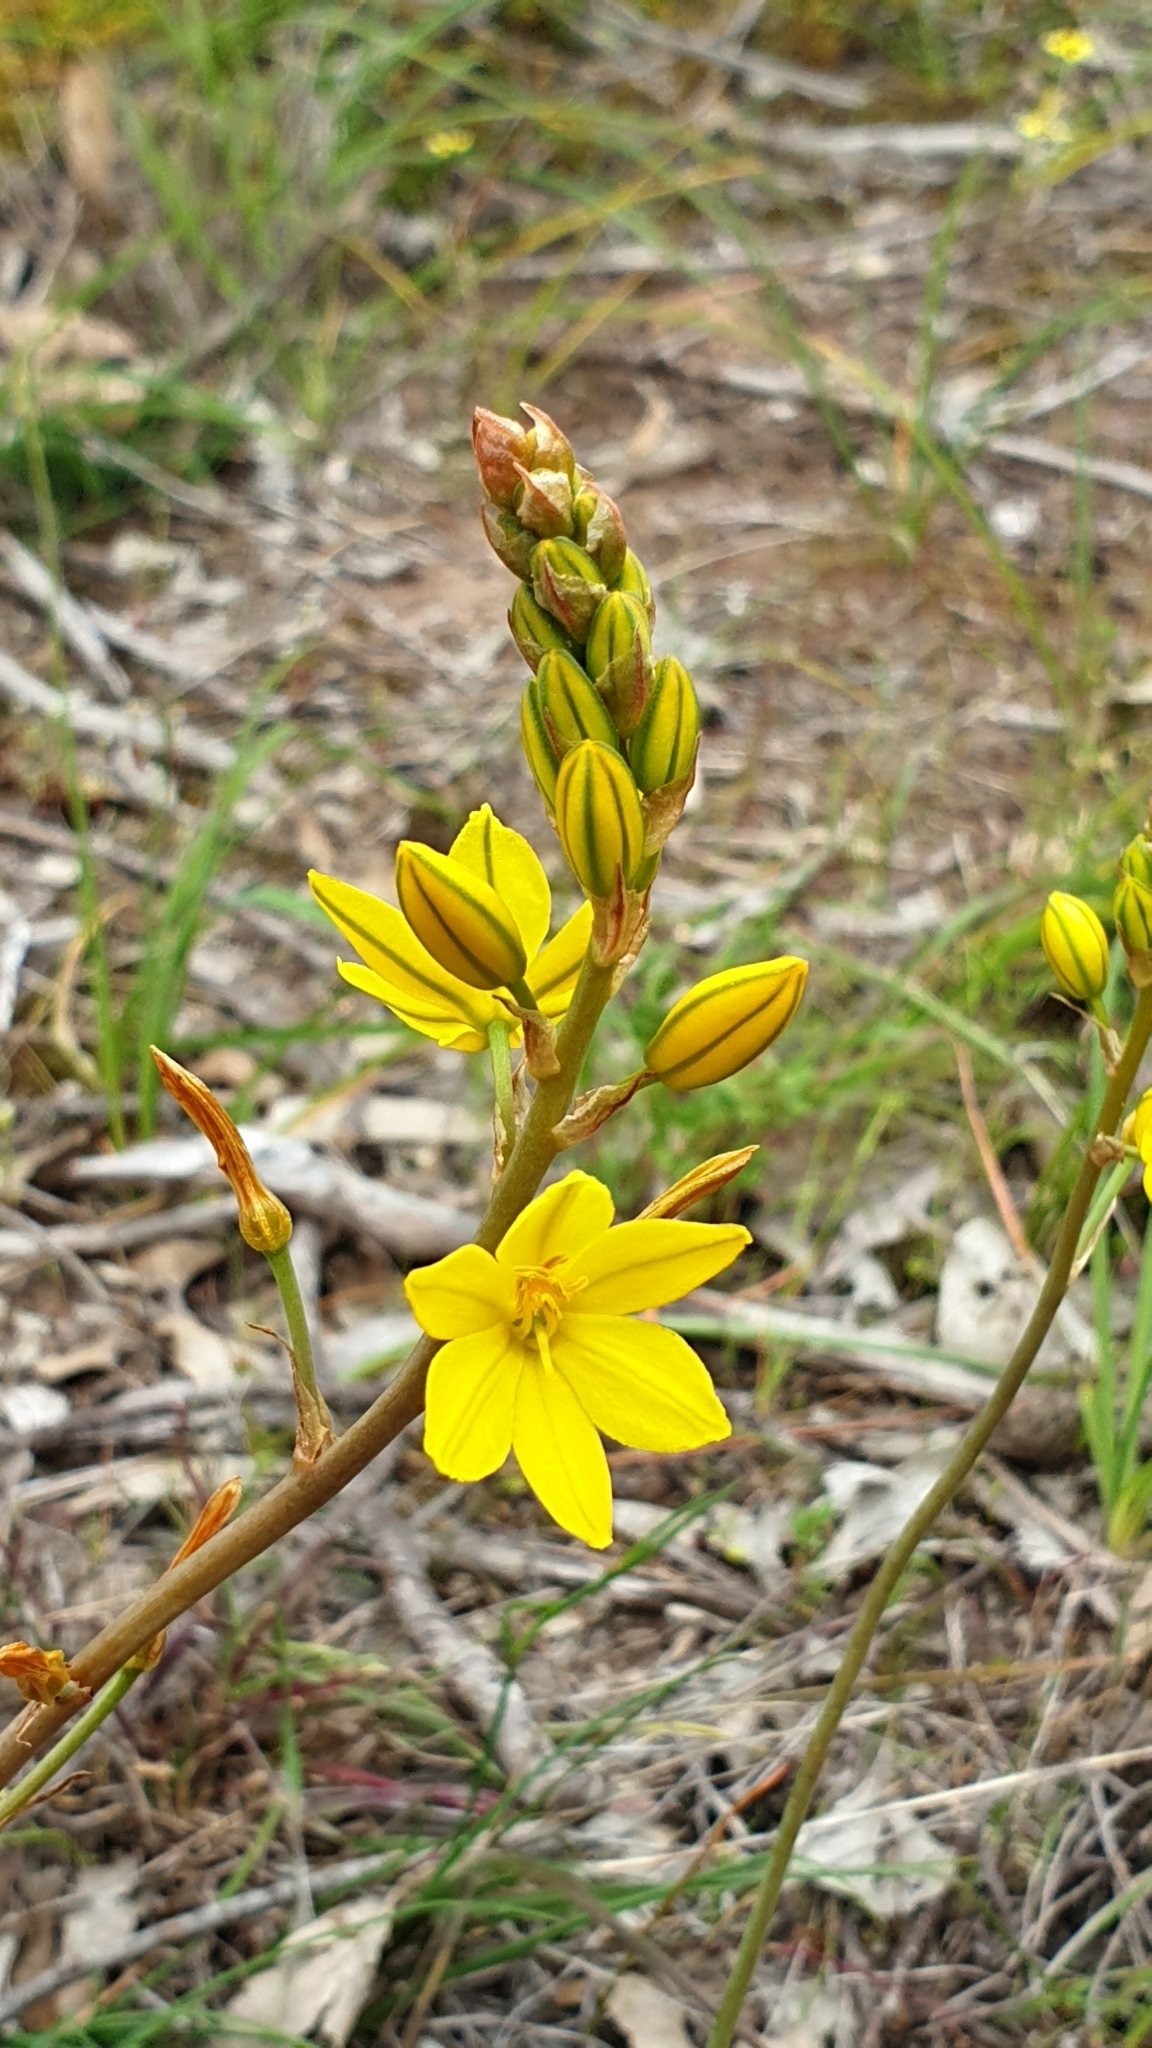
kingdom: Plantae
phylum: Tracheophyta
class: Liliopsida
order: Asparagales
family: Asphodelaceae
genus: Bulbine
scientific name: Bulbine bulbosa
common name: Golden-lily
